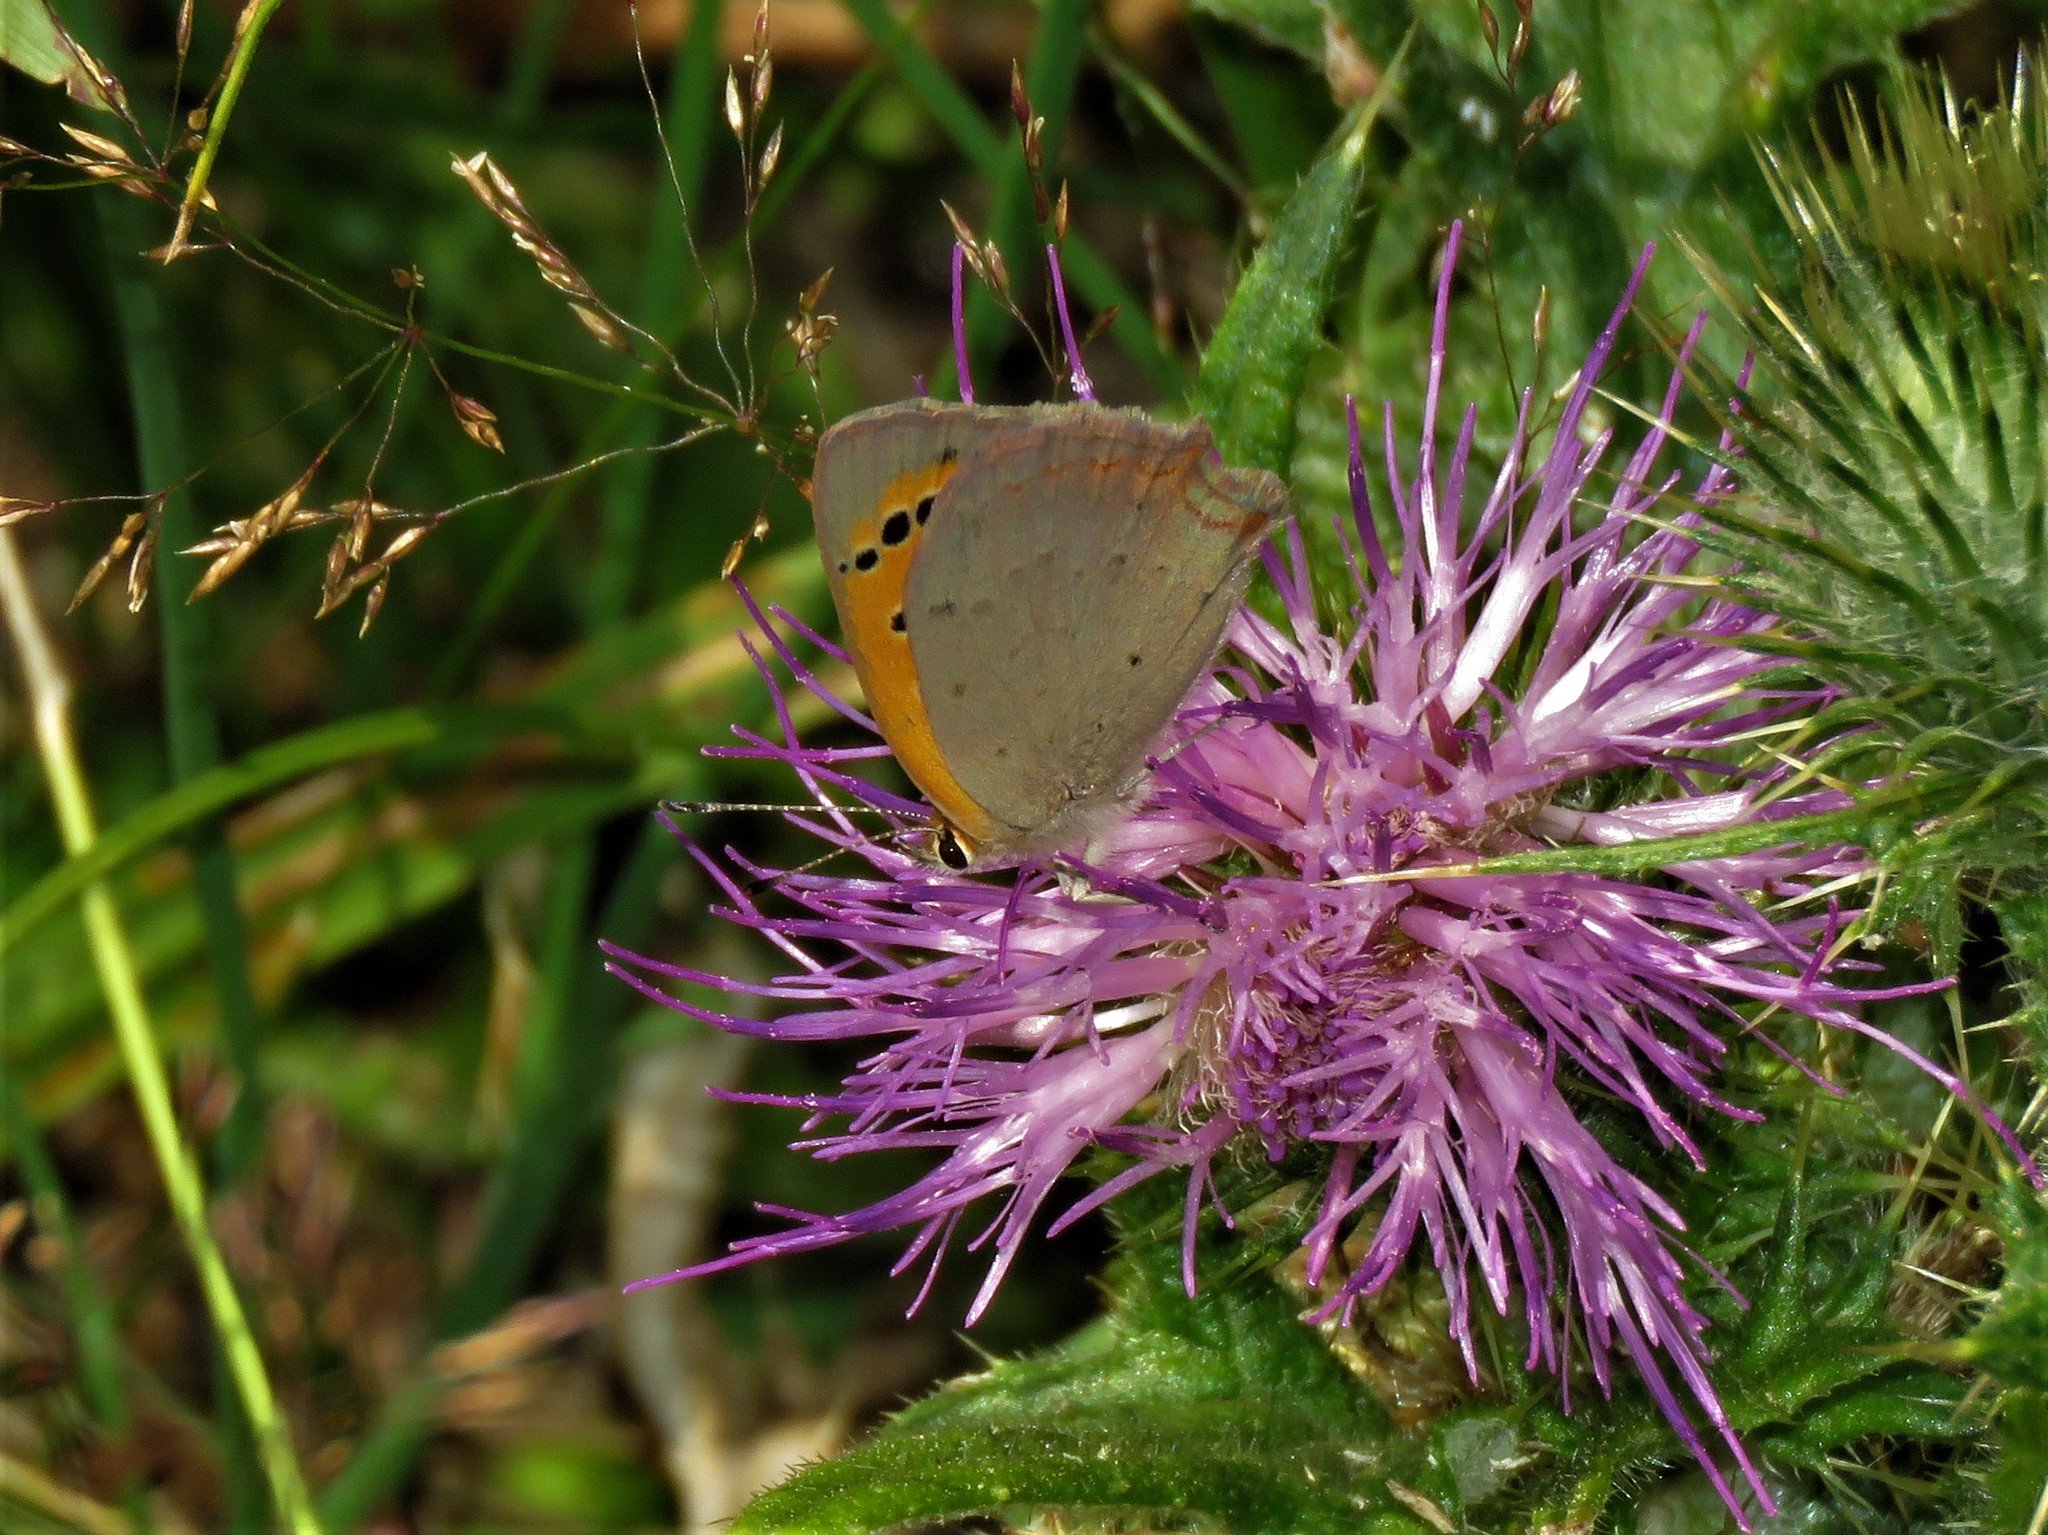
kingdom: Animalia
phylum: Arthropoda
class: Insecta
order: Lepidoptera
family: Lycaenidae
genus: Lycaena
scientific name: Lycaena phlaeas
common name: Small copper
